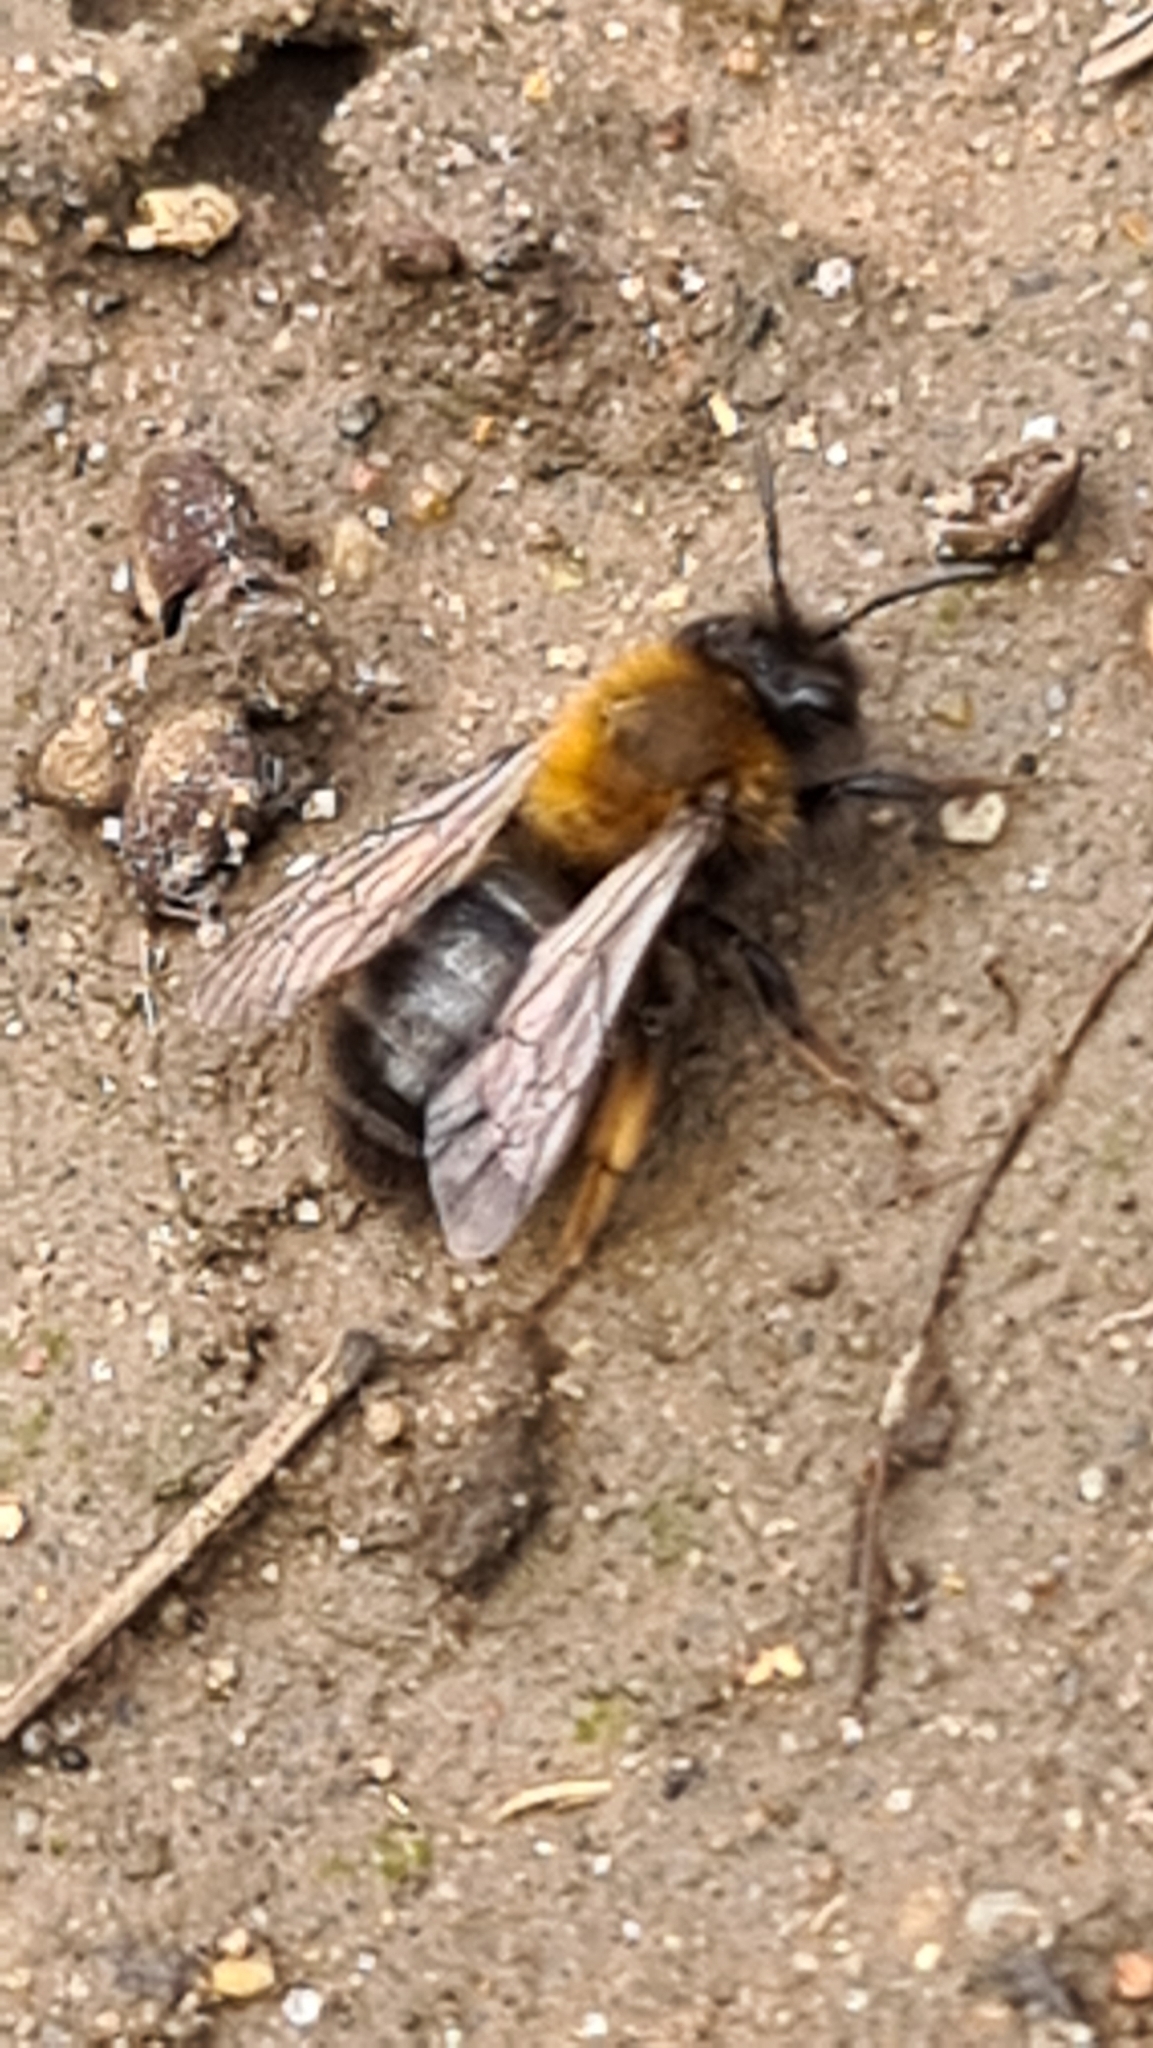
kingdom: Animalia
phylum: Arthropoda
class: Insecta
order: Hymenoptera
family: Andrenidae
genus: Andrena
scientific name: Andrena clarkella
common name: Clarke's mining bee
